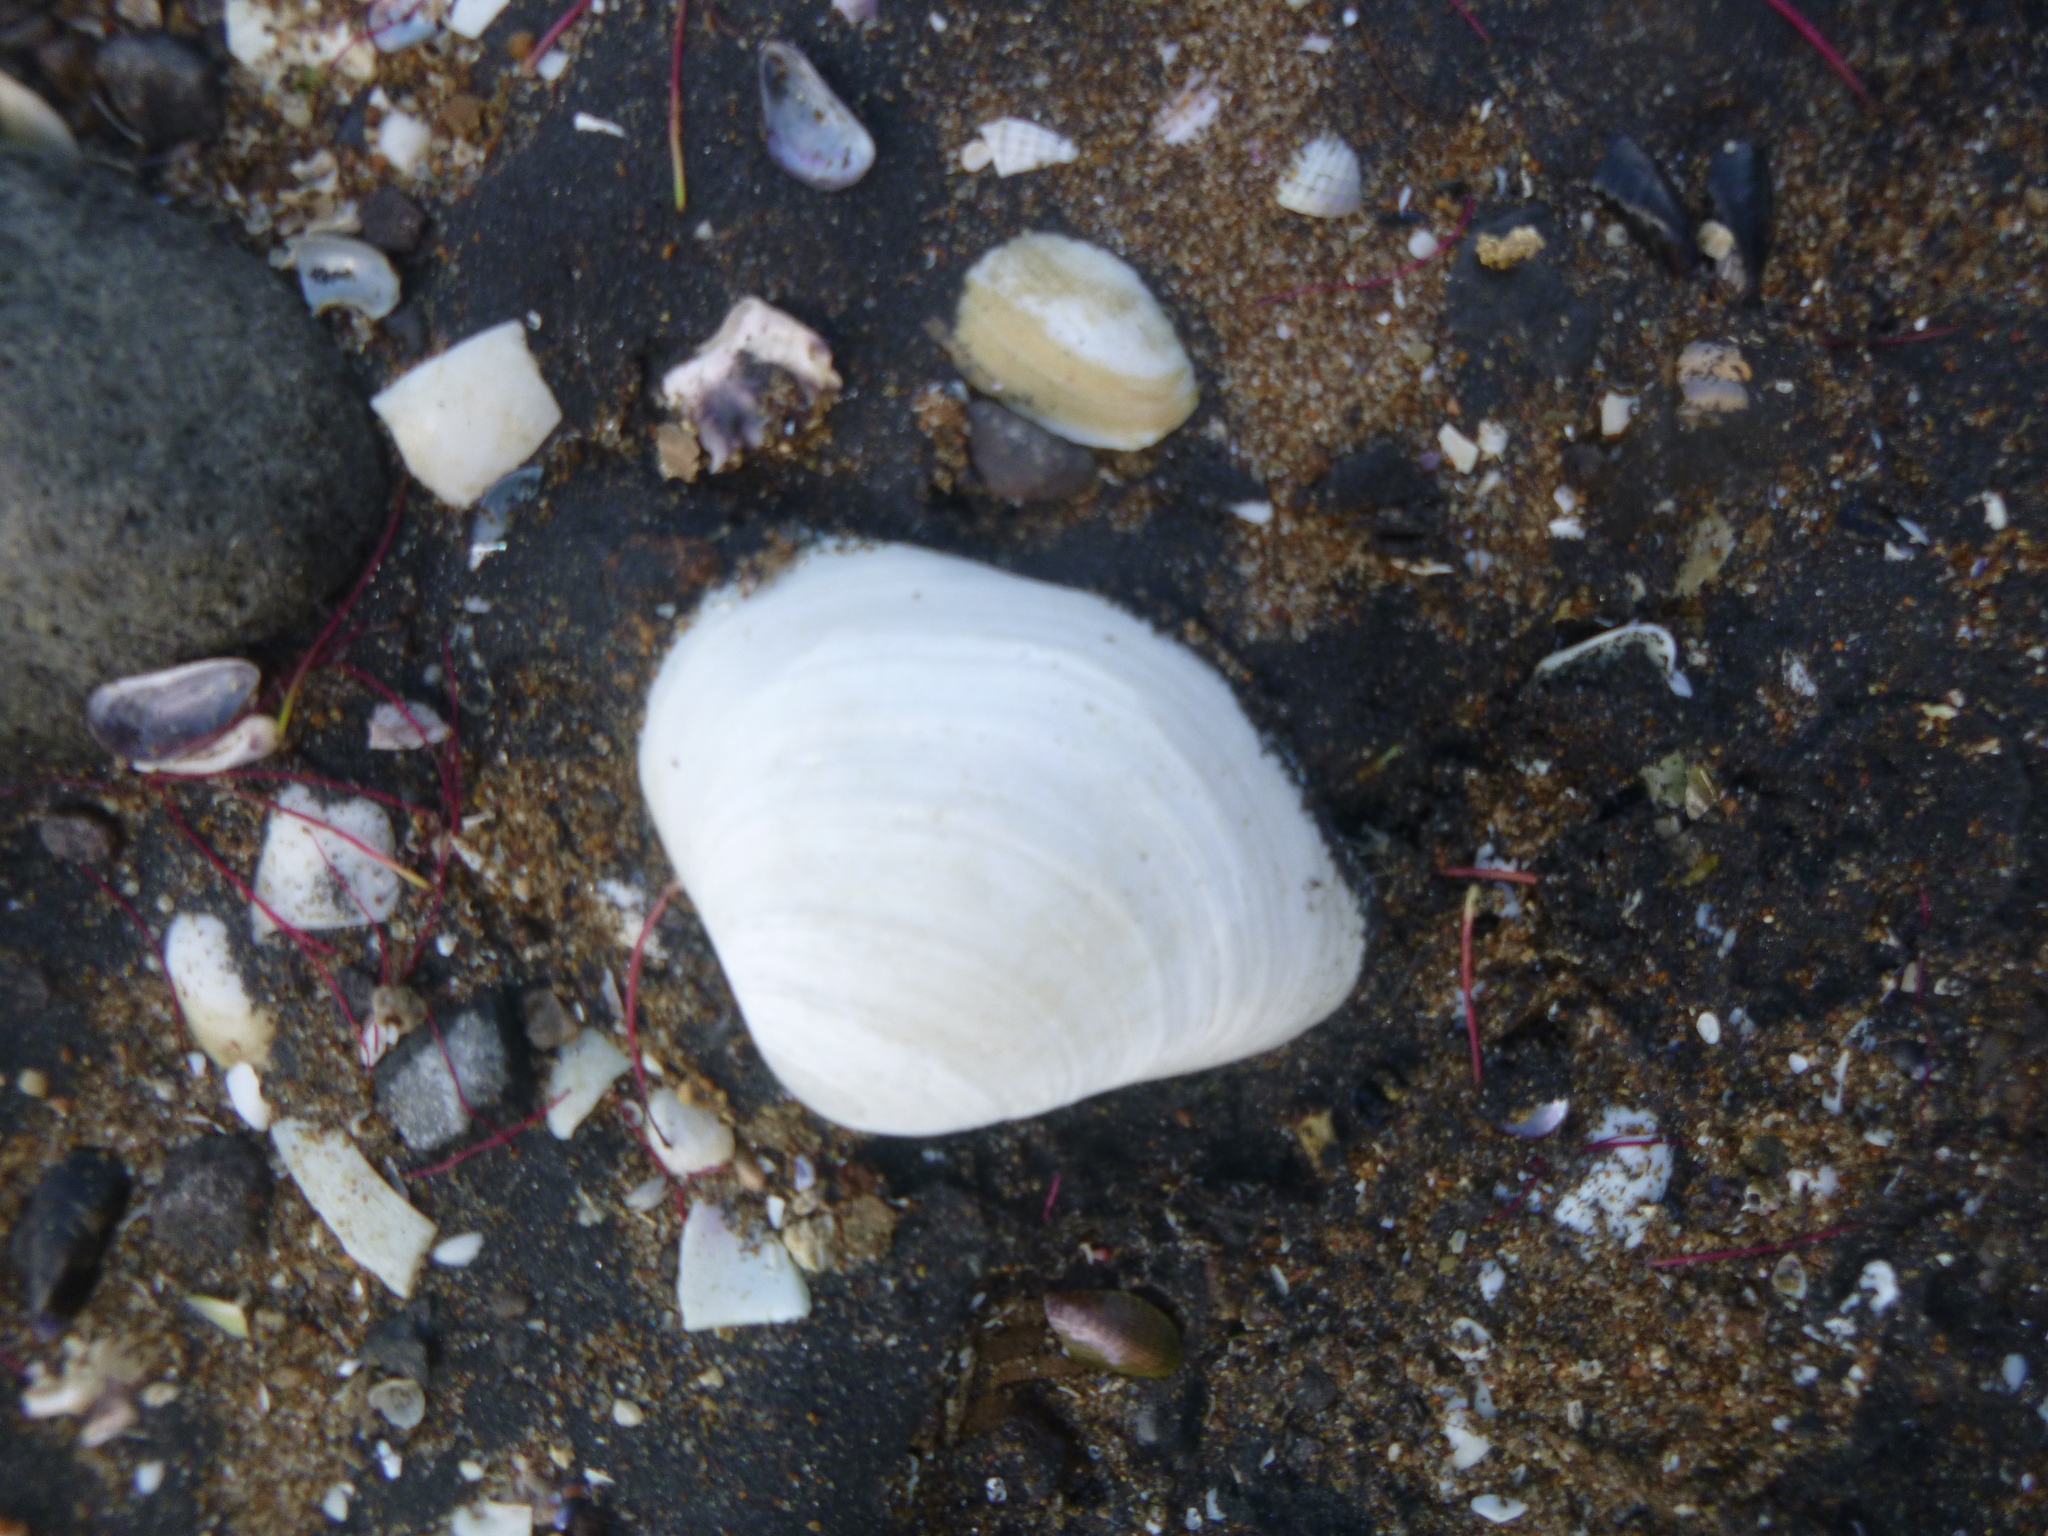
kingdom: Animalia
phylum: Mollusca
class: Bivalvia
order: Venerida
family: Mactridae
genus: Cyclomactra
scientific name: Cyclomactra ovata
